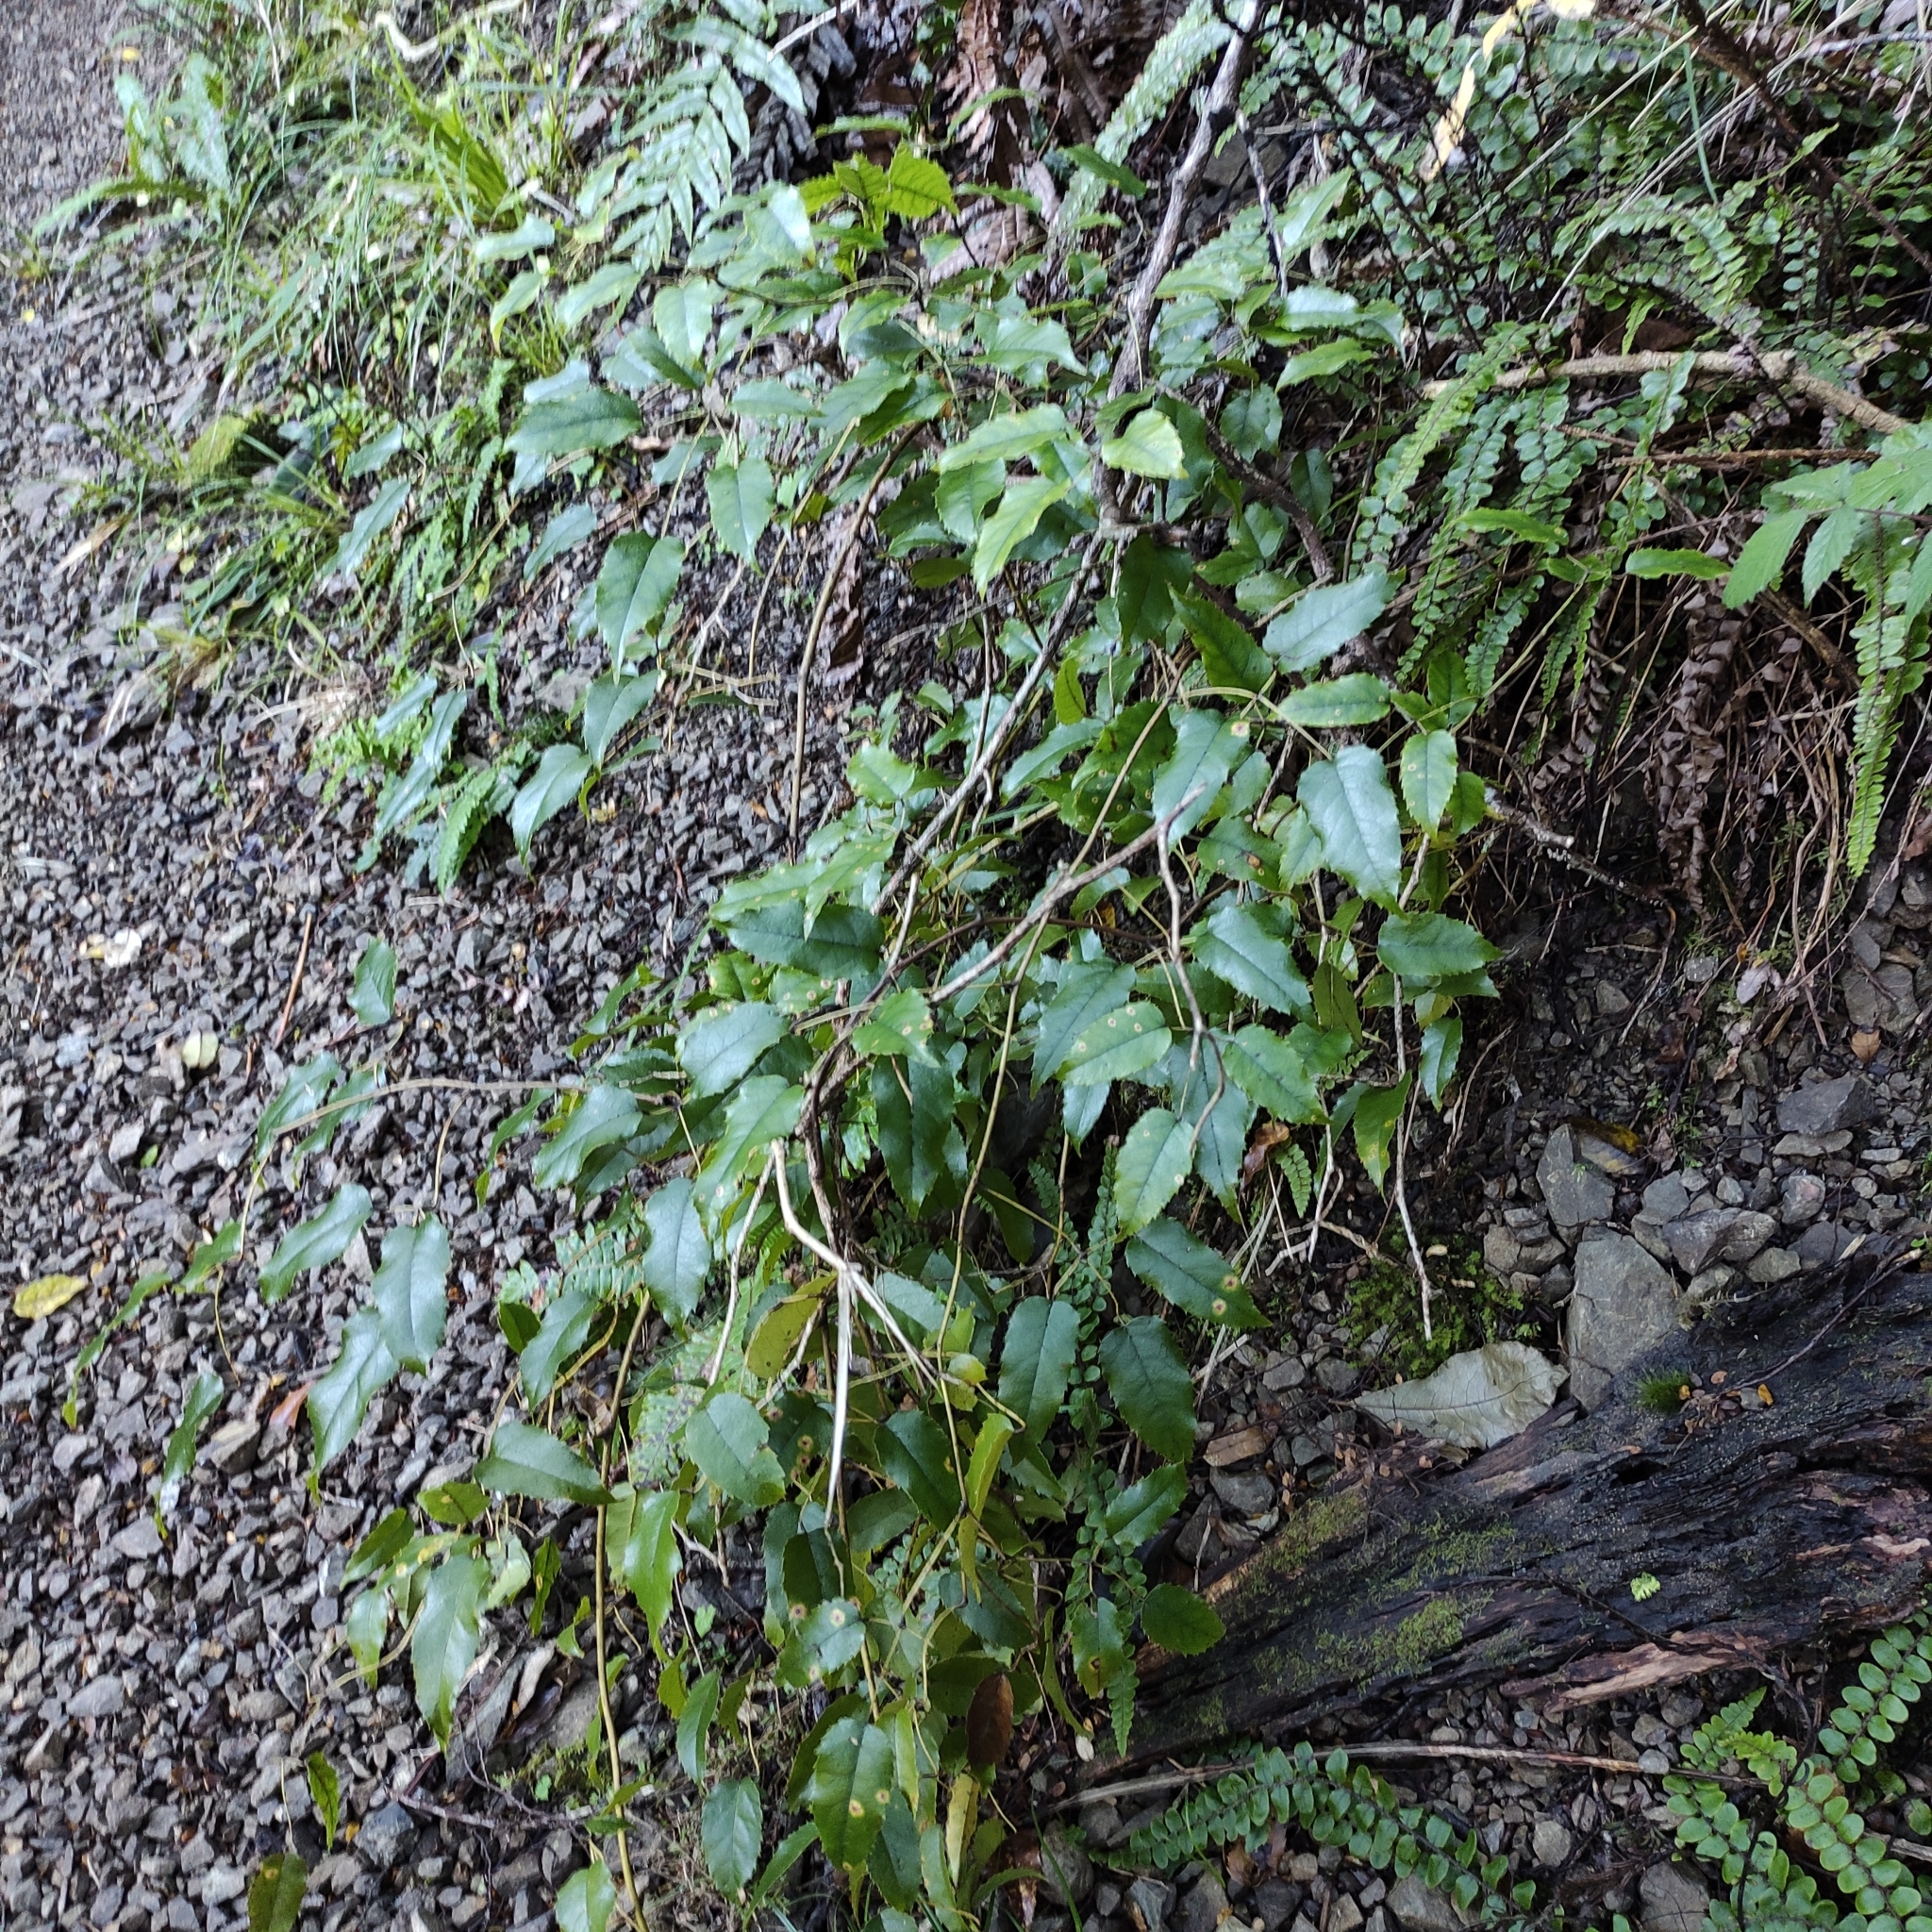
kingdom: Plantae
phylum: Tracheophyta
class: Magnoliopsida
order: Rosales
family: Rosaceae
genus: Rubus
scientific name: Rubus cissoides
